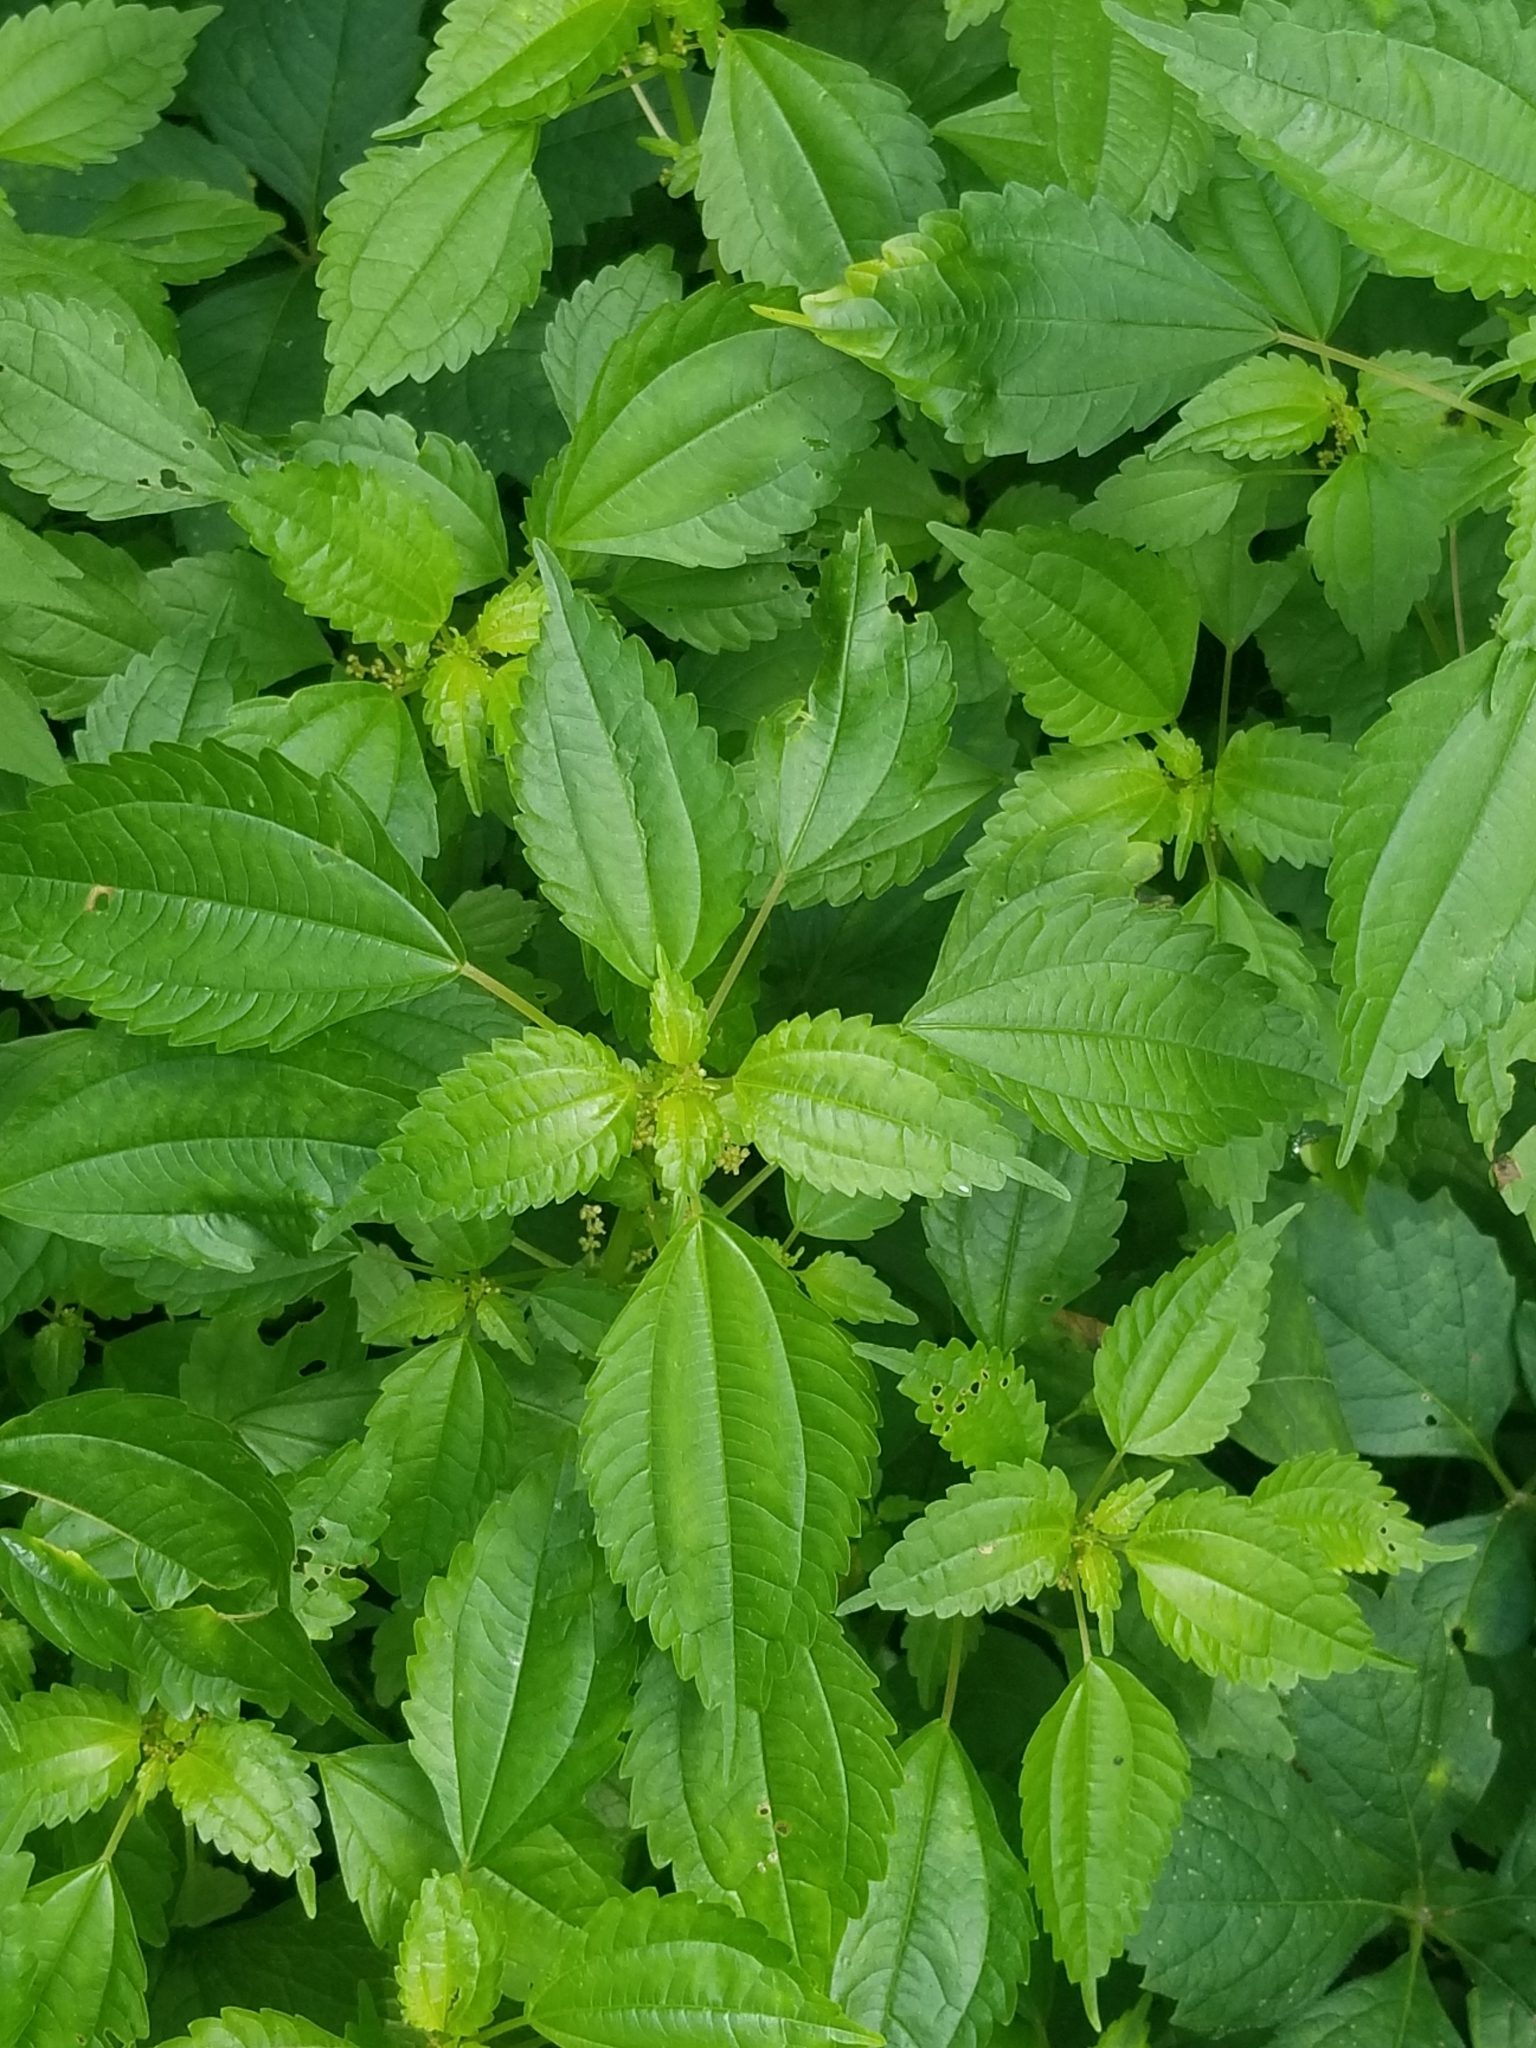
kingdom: Plantae
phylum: Tracheophyta
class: Magnoliopsida
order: Rosales
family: Urticaceae
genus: Pilea
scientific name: Pilea pumila
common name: Clearweed
